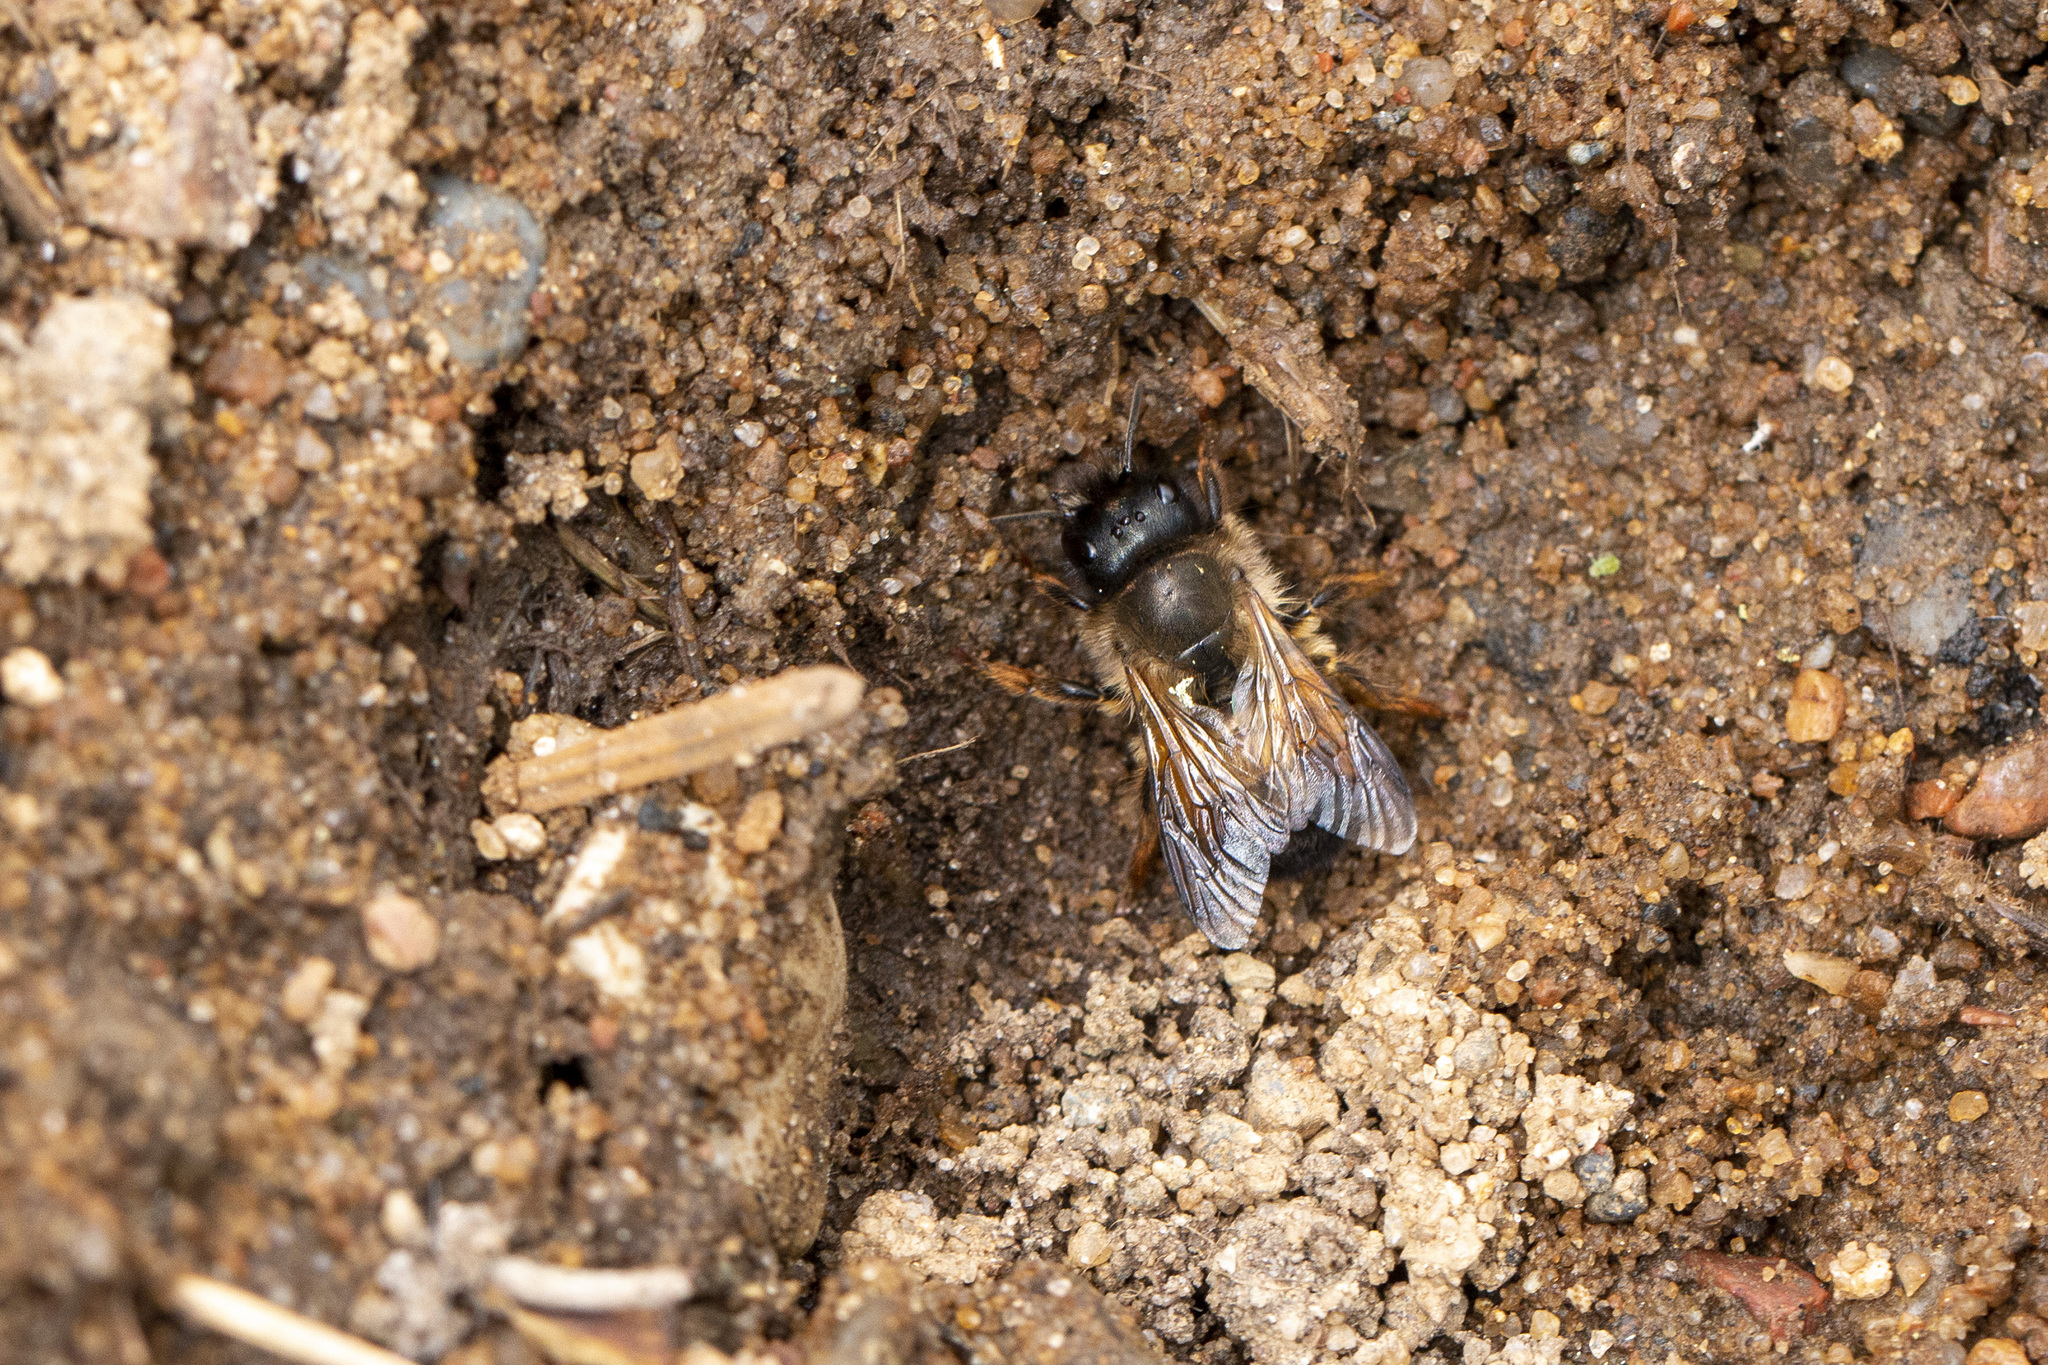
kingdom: Animalia
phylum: Arthropoda
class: Insecta
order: Hymenoptera
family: Megachilidae
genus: Osmia
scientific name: Osmia bicornis
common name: Red mason bee
